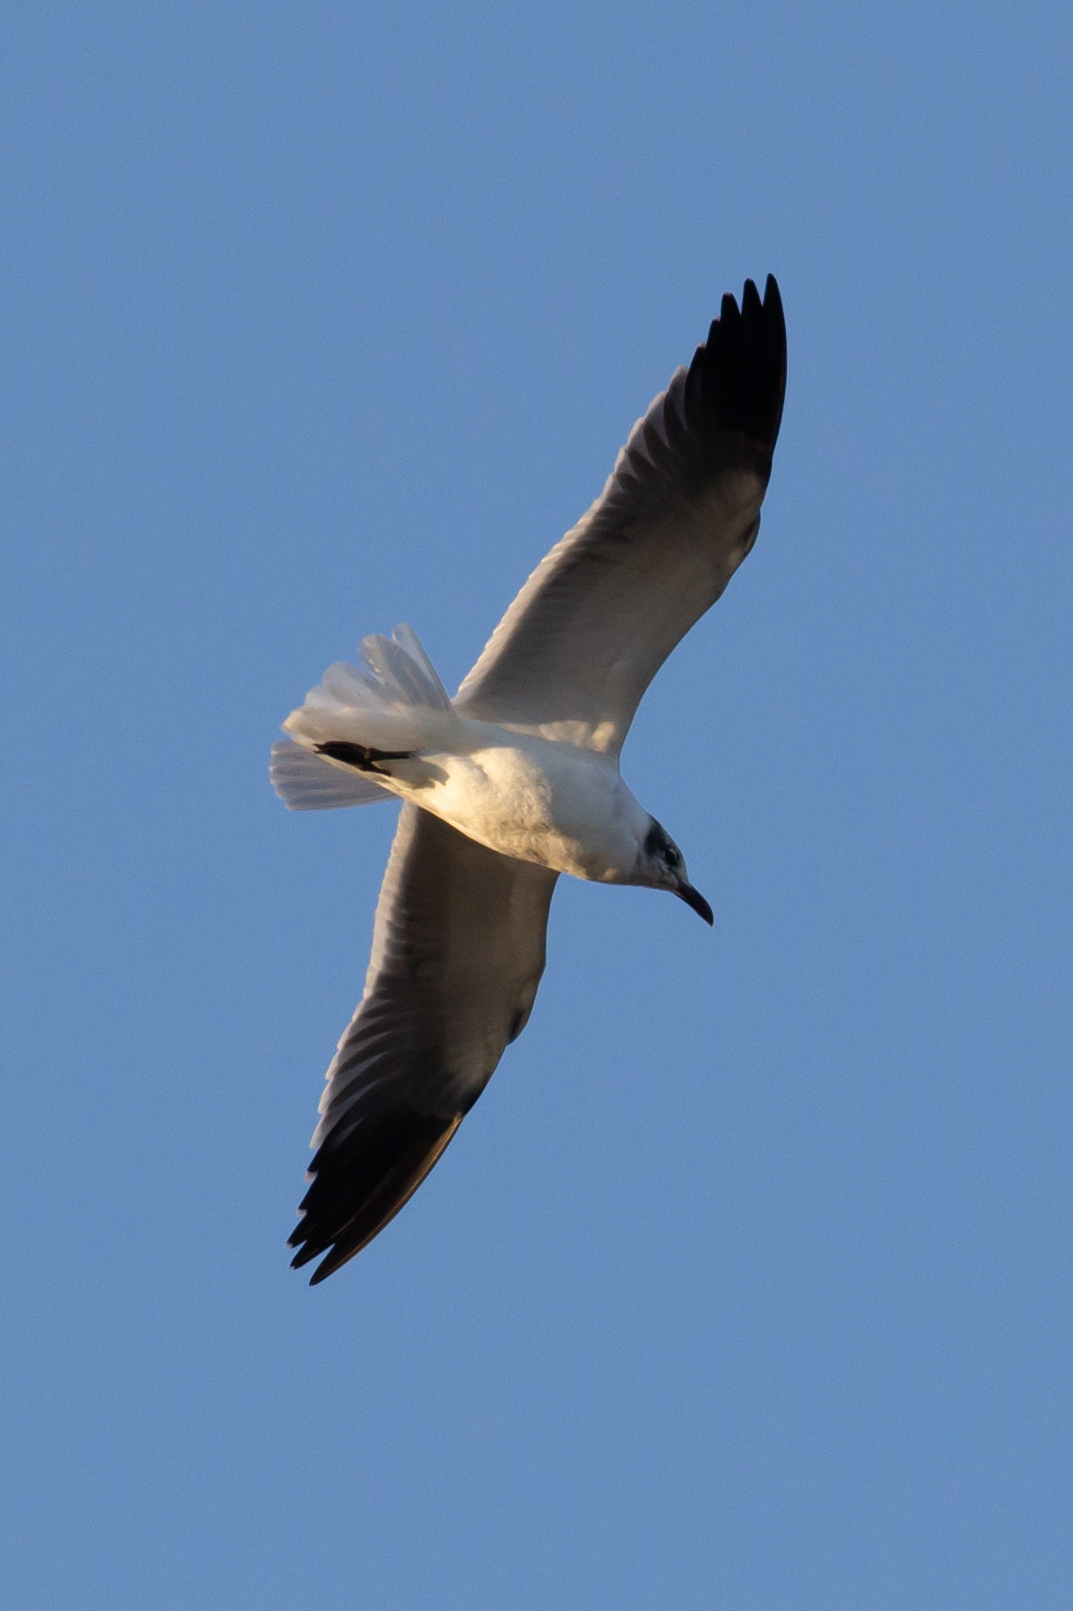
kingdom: Animalia
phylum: Chordata
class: Aves
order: Charadriiformes
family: Laridae
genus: Leucophaeus
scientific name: Leucophaeus atricilla
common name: Laughing gull
